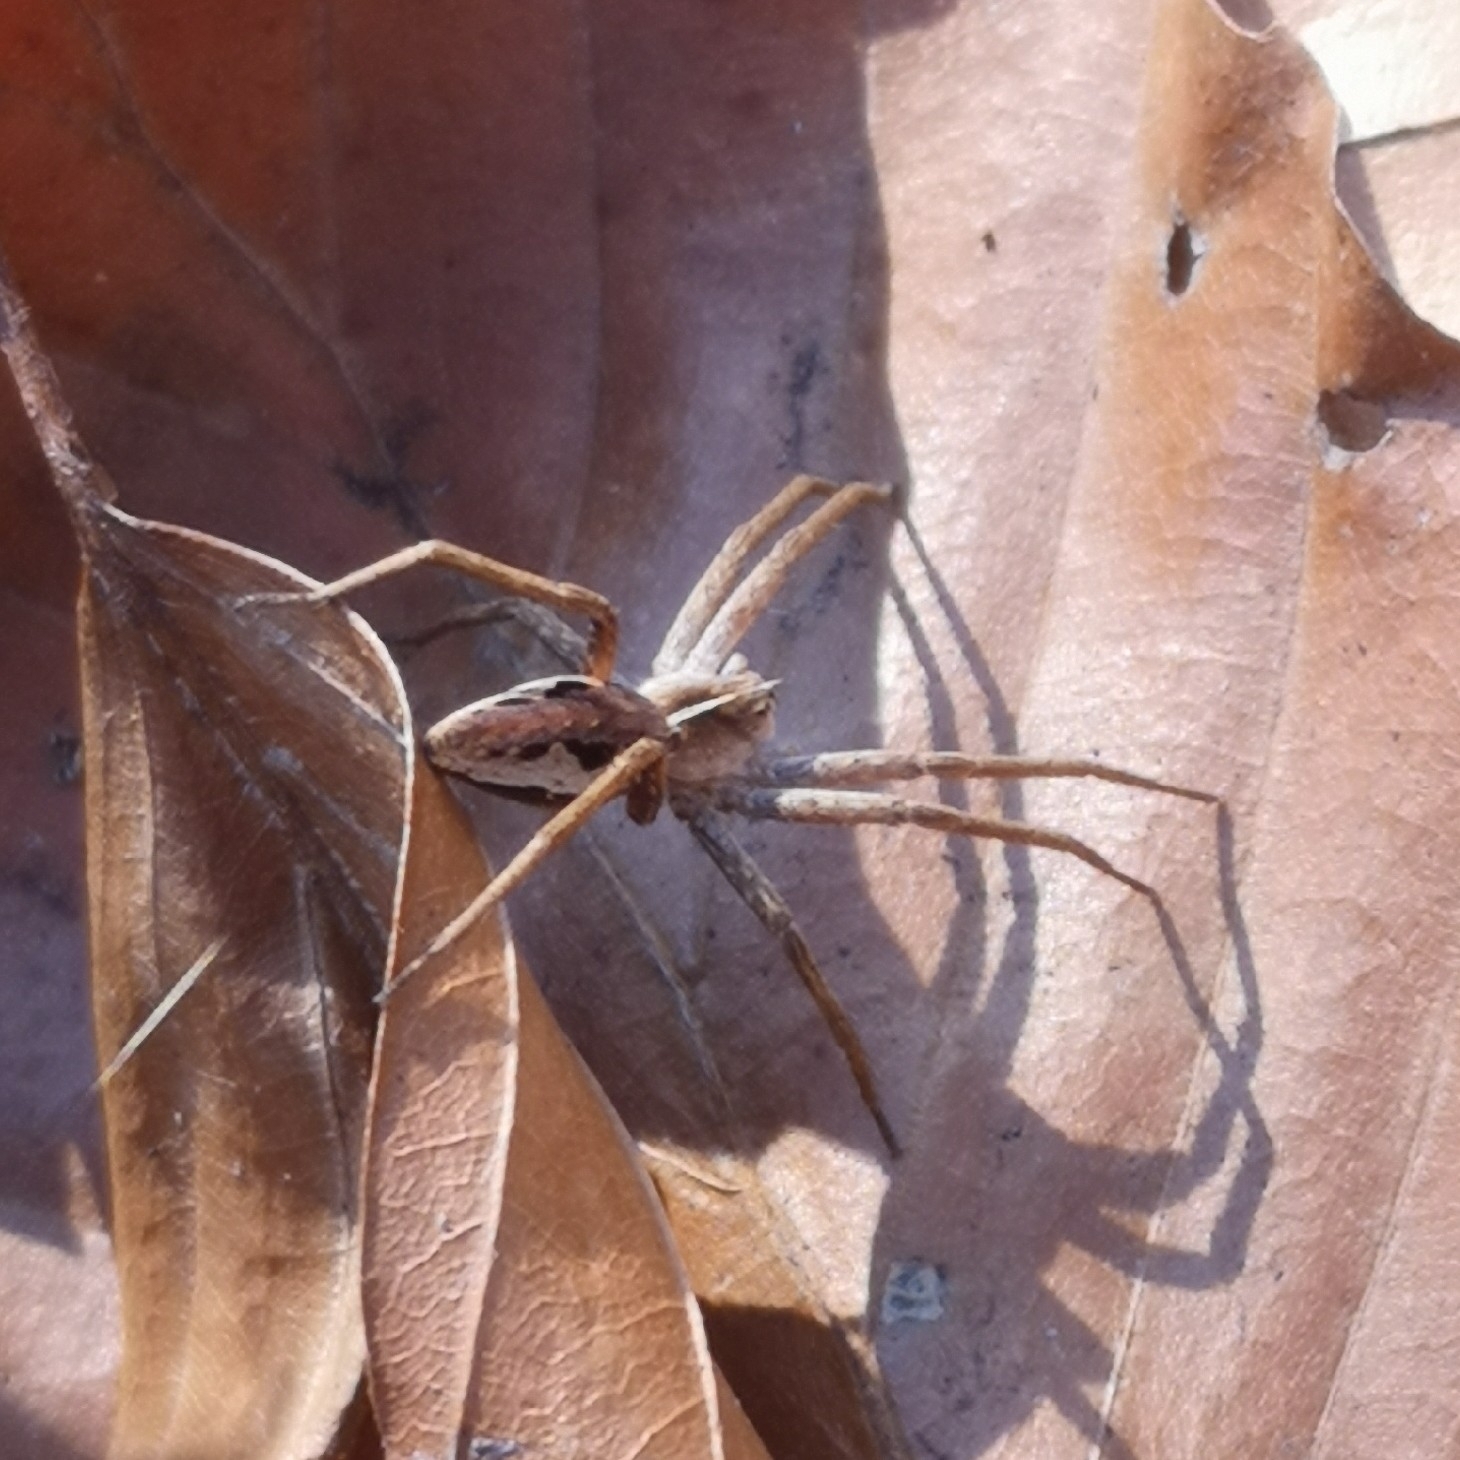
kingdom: Animalia
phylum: Arthropoda
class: Arachnida
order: Araneae
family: Pisauridae
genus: Pisaura
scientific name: Pisaura mirabilis
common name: Tent spider
